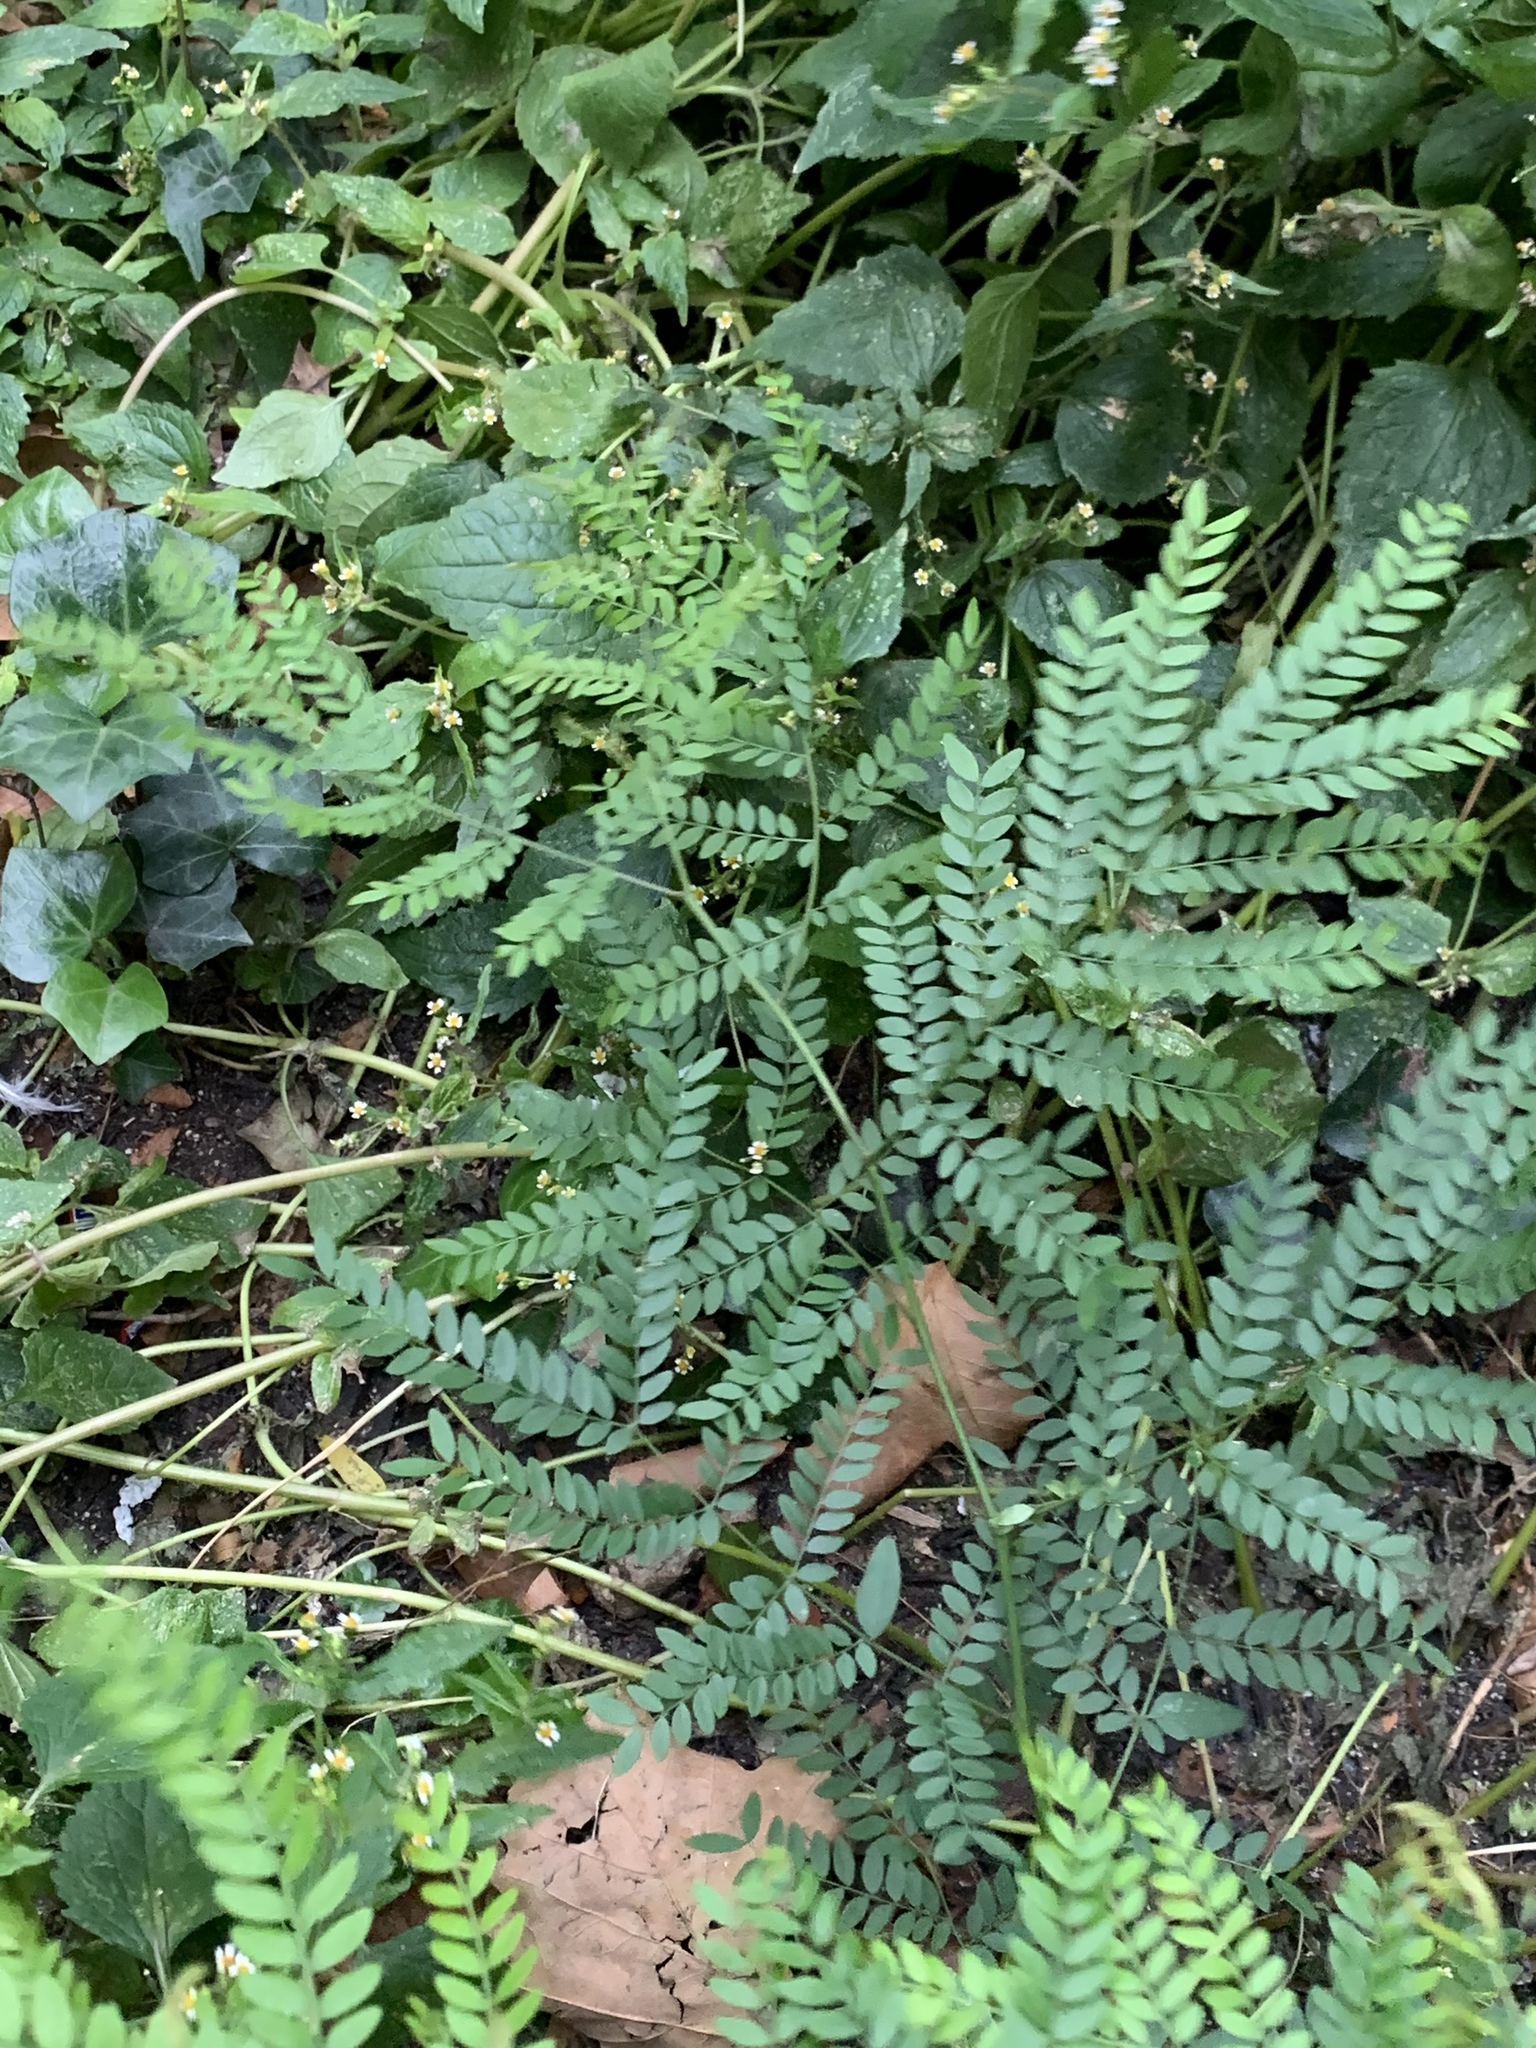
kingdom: Plantae
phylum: Tracheophyta
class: Magnoliopsida
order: Fabales
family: Fabaceae
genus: Gleditsia
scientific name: Gleditsia triacanthos
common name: Common honeylocust
